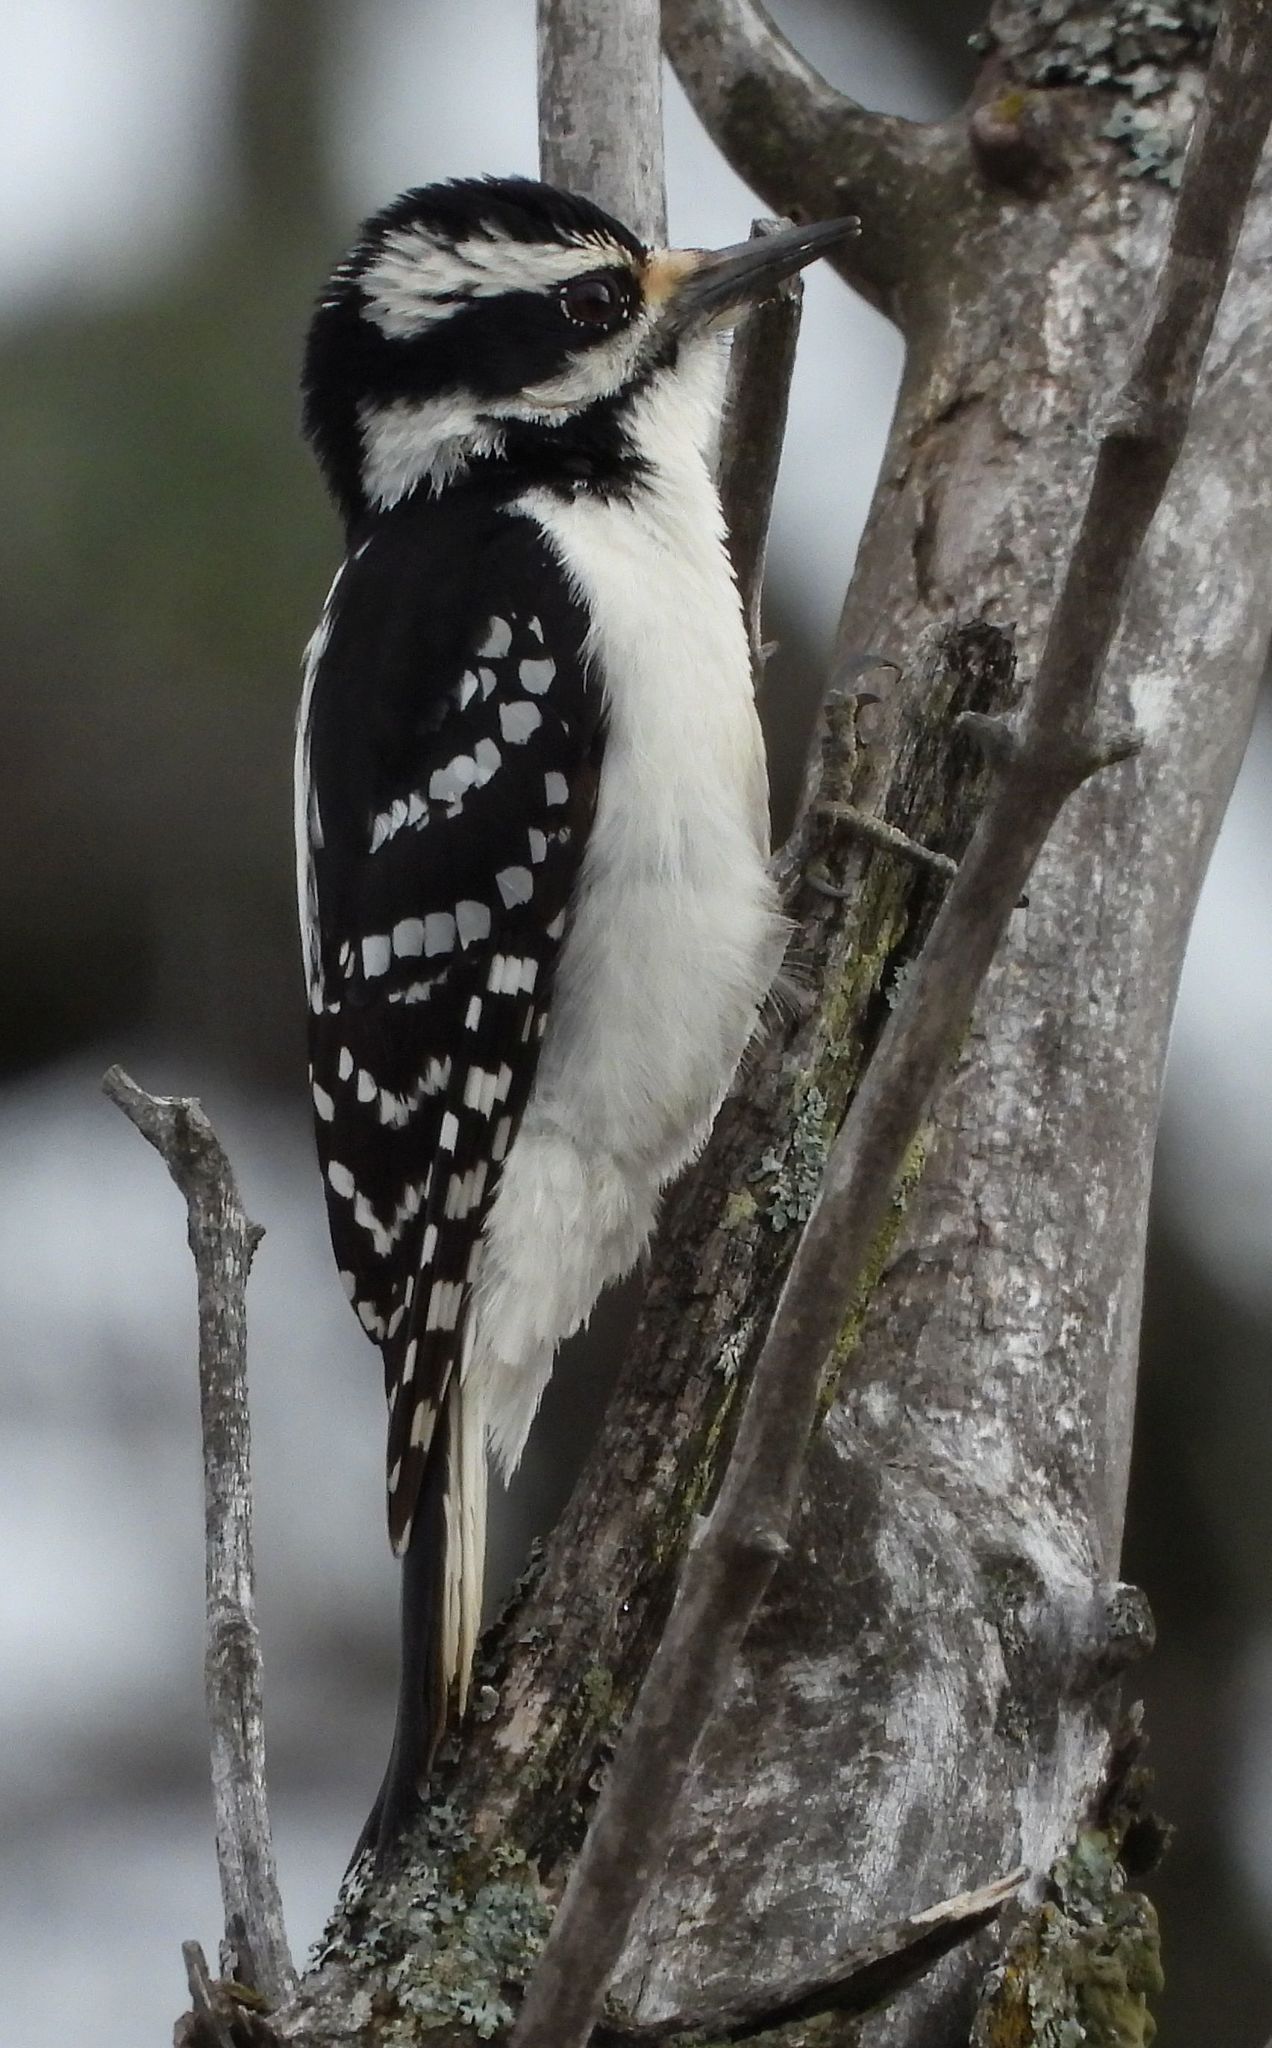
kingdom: Animalia
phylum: Chordata
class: Aves
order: Piciformes
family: Picidae
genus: Leuconotopicus
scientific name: Leuconotopicus villosus
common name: Hairy woodpecker
